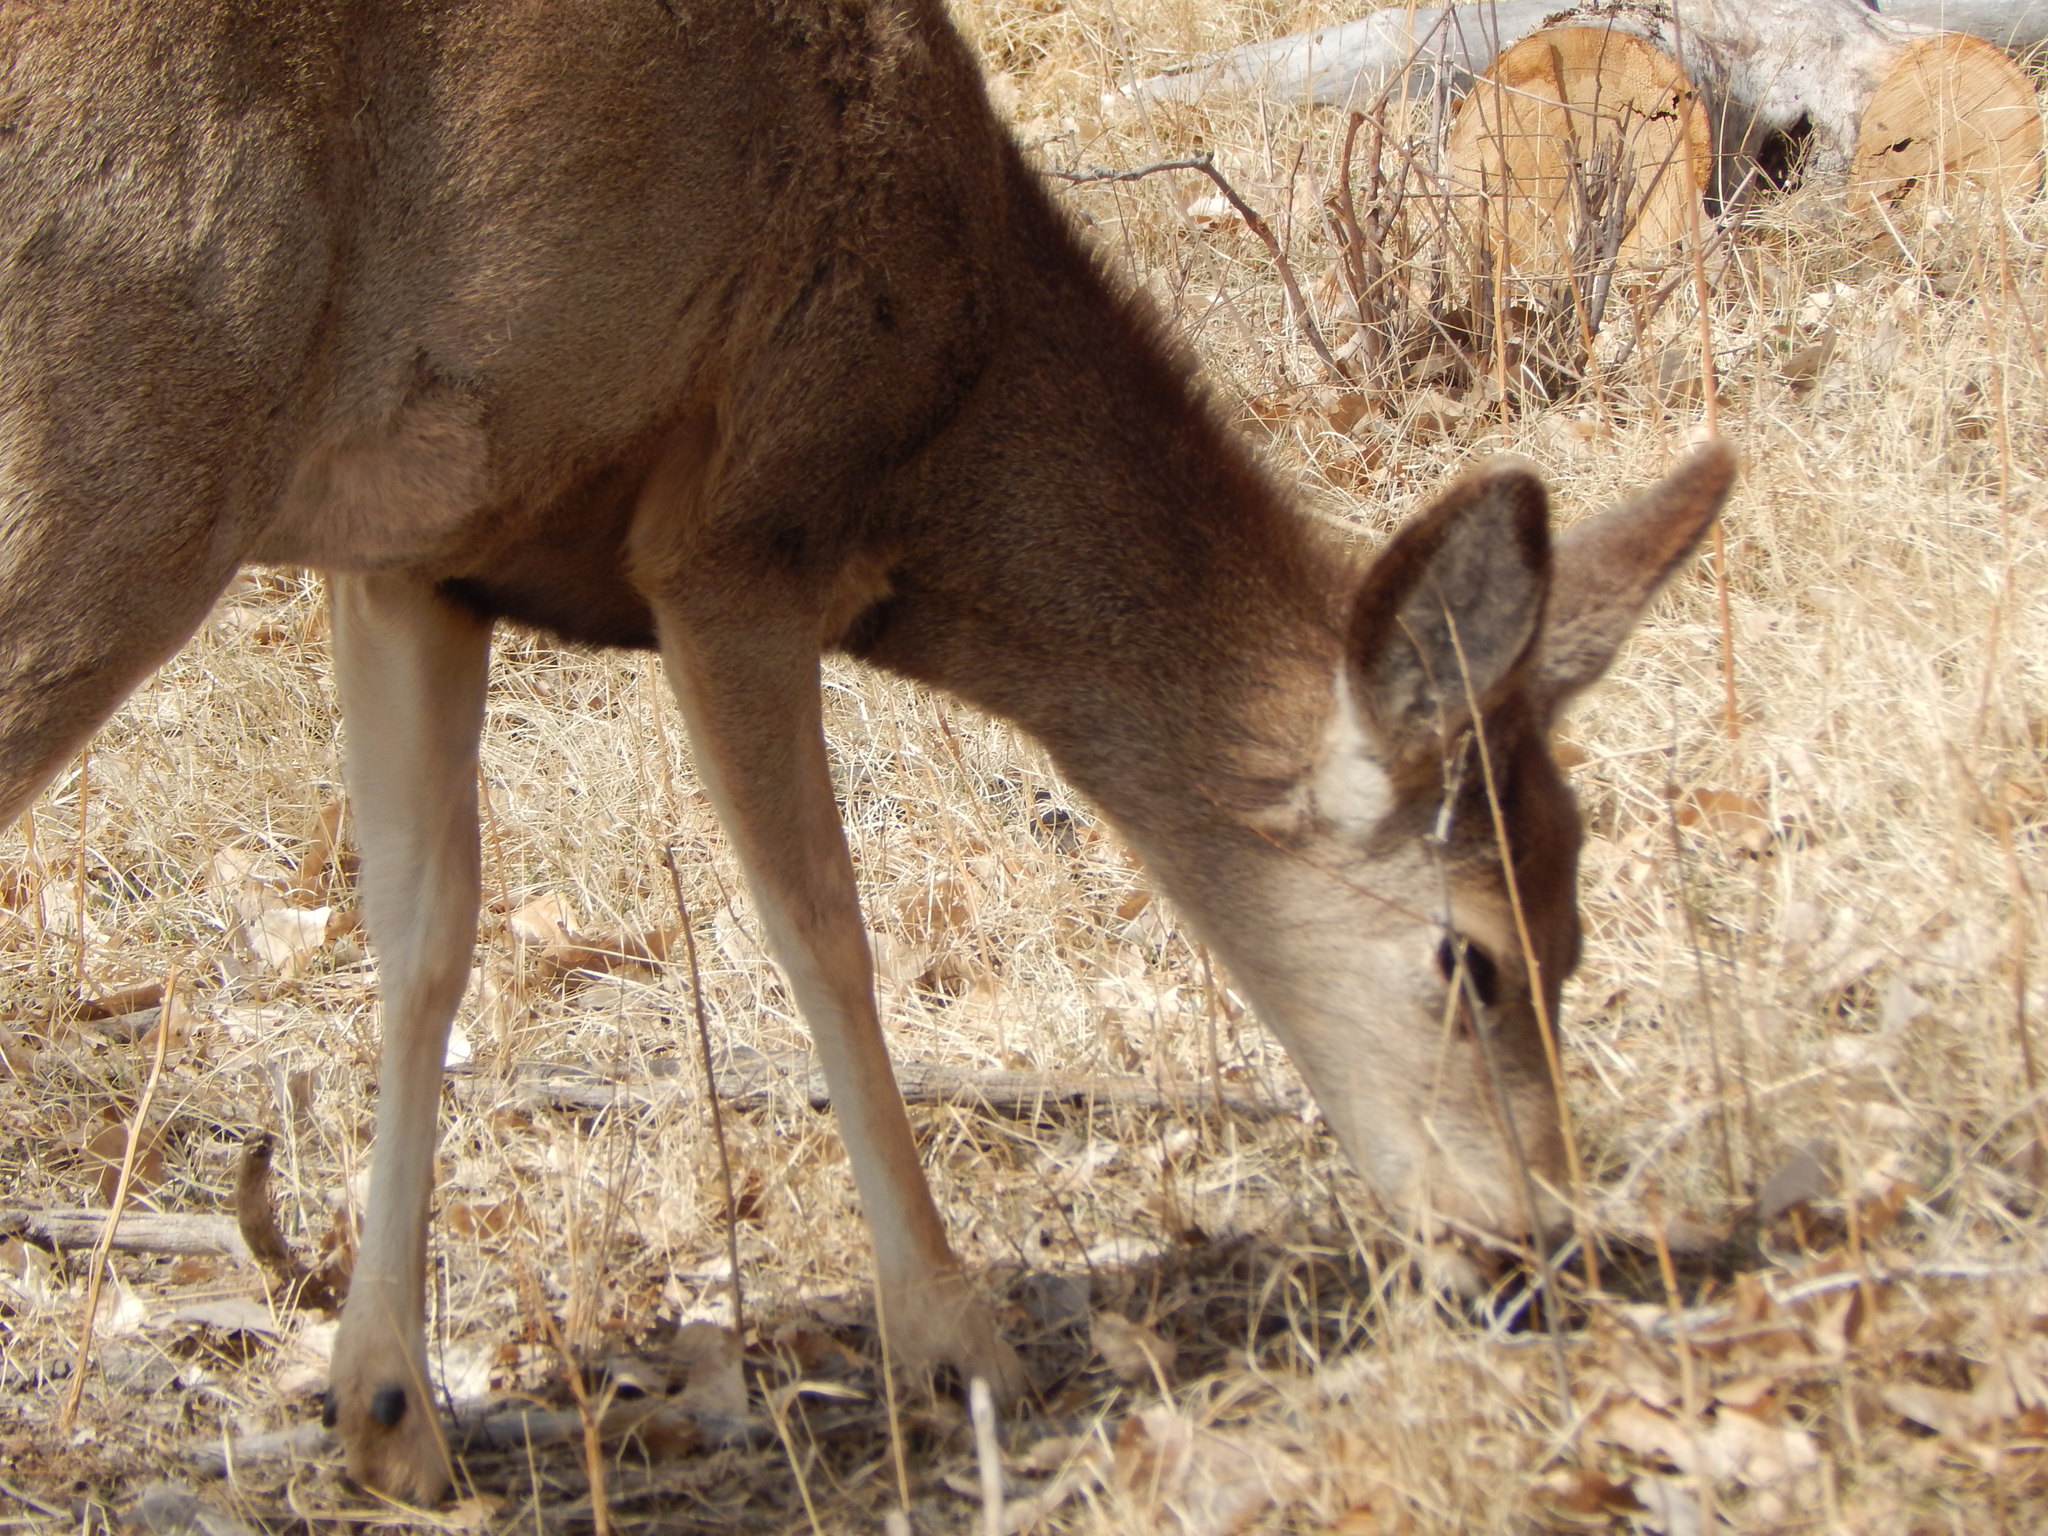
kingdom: Animalia
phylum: Chordata
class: Mammalia
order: Artiodactyla
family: Cervidae
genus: Odocoileus
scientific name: Odocoileus hemionus
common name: Mule deer
